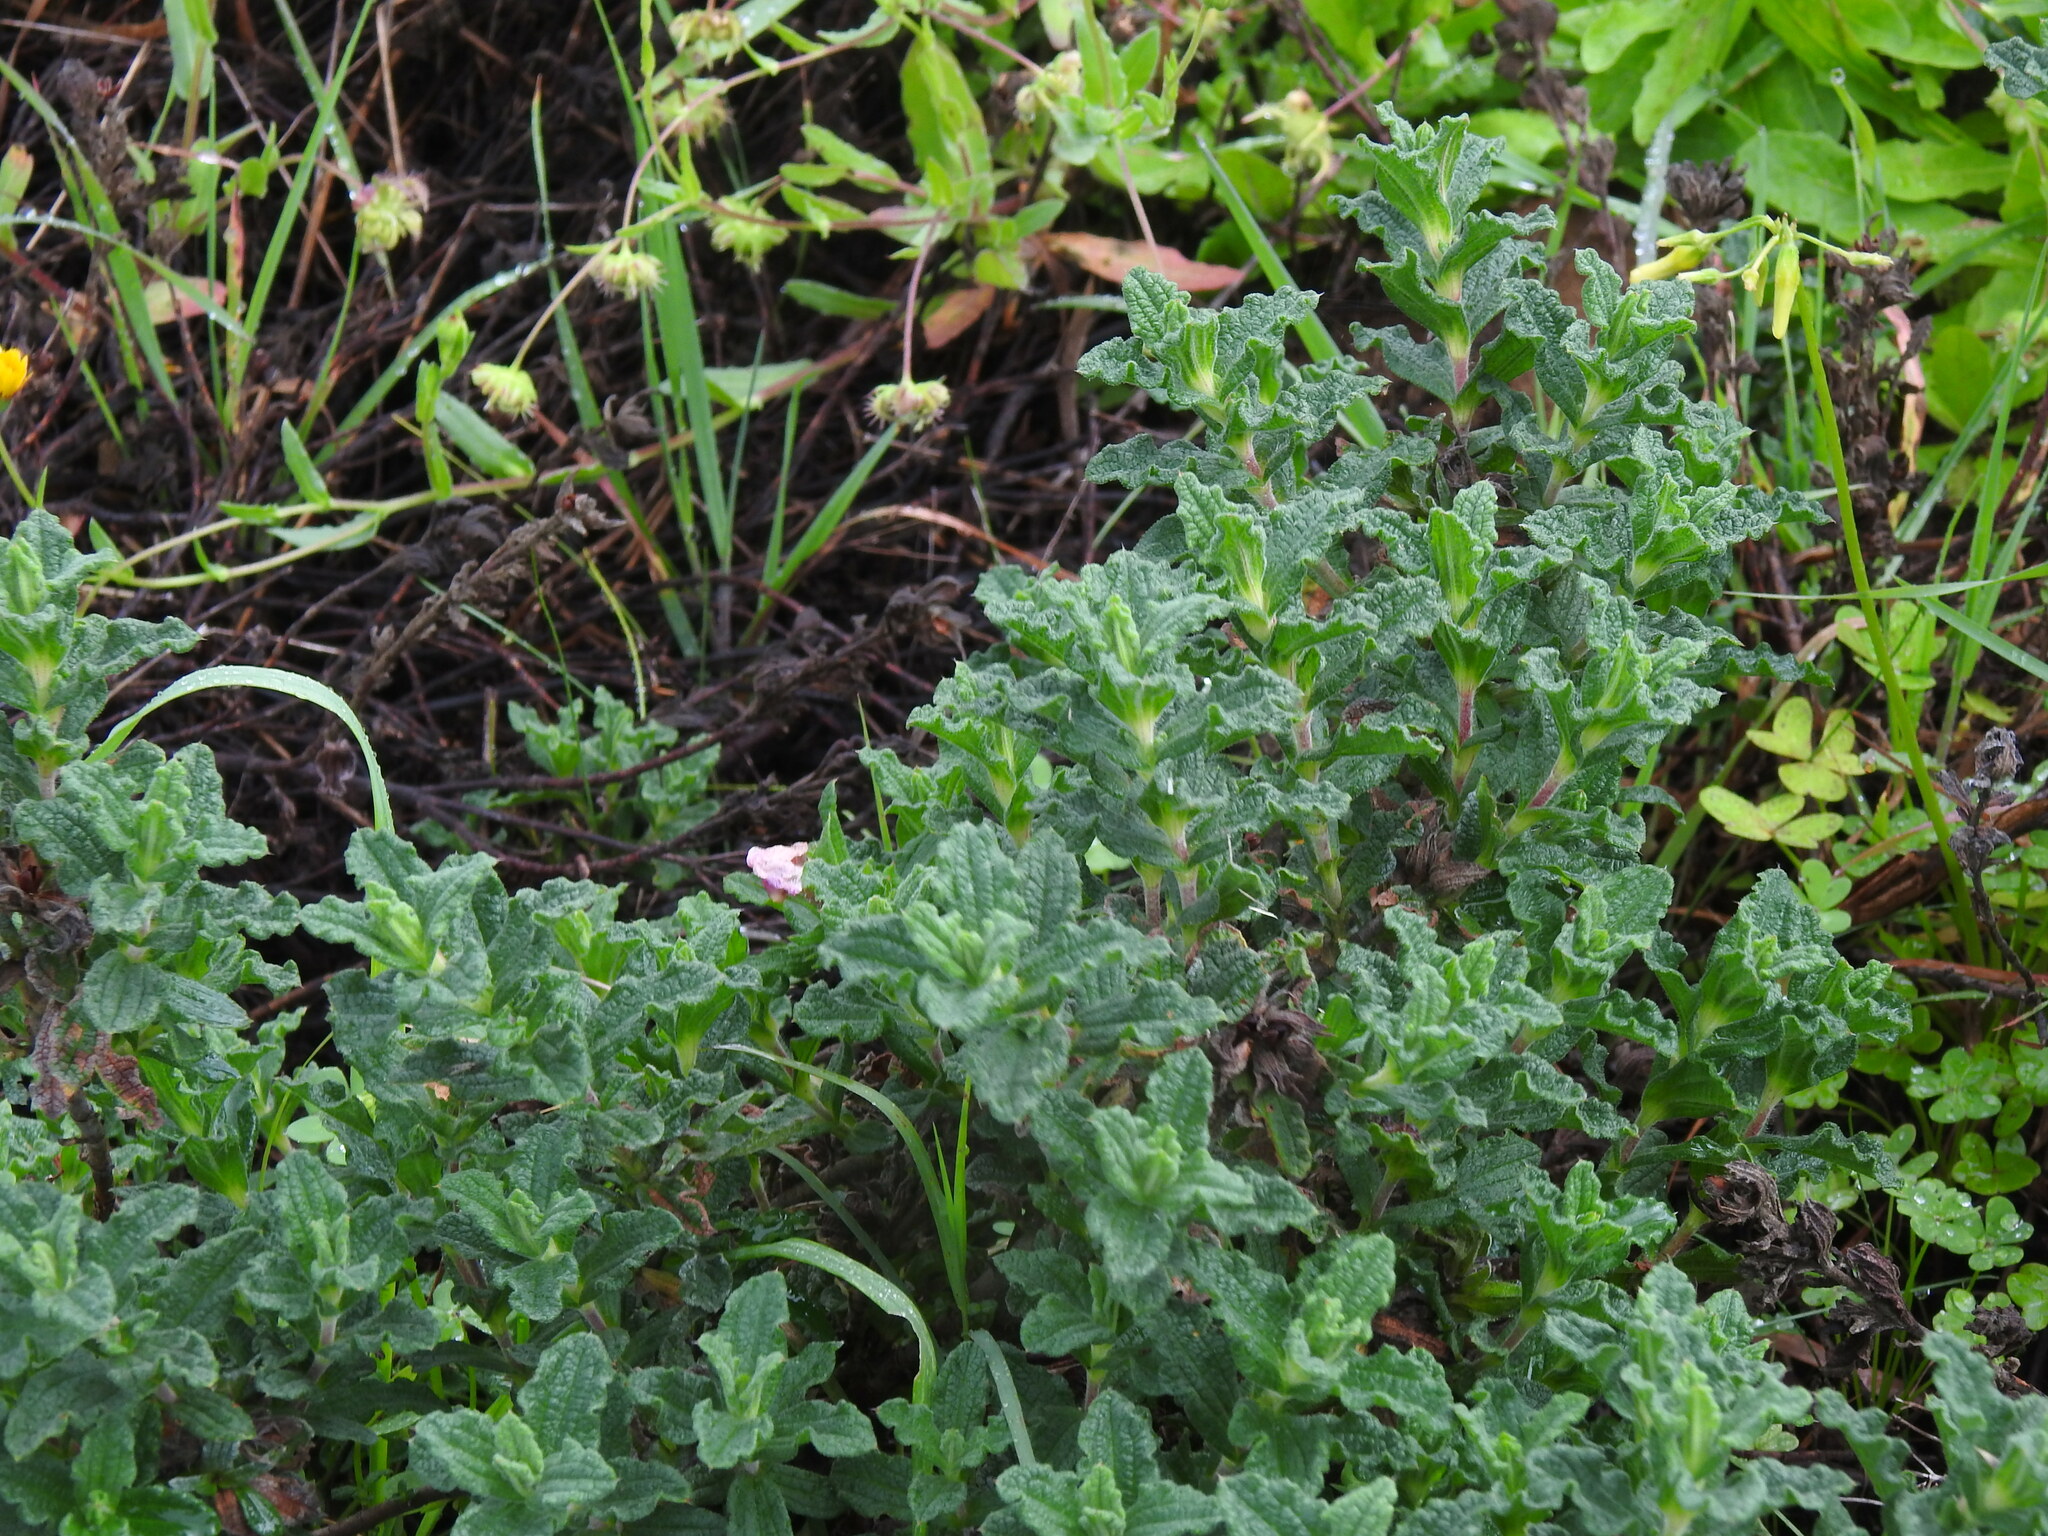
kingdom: Plantae
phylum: Tracheophyta
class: Magnoliopsida
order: Malvales
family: Cistaceae
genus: Cistus
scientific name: Cistus crispus
